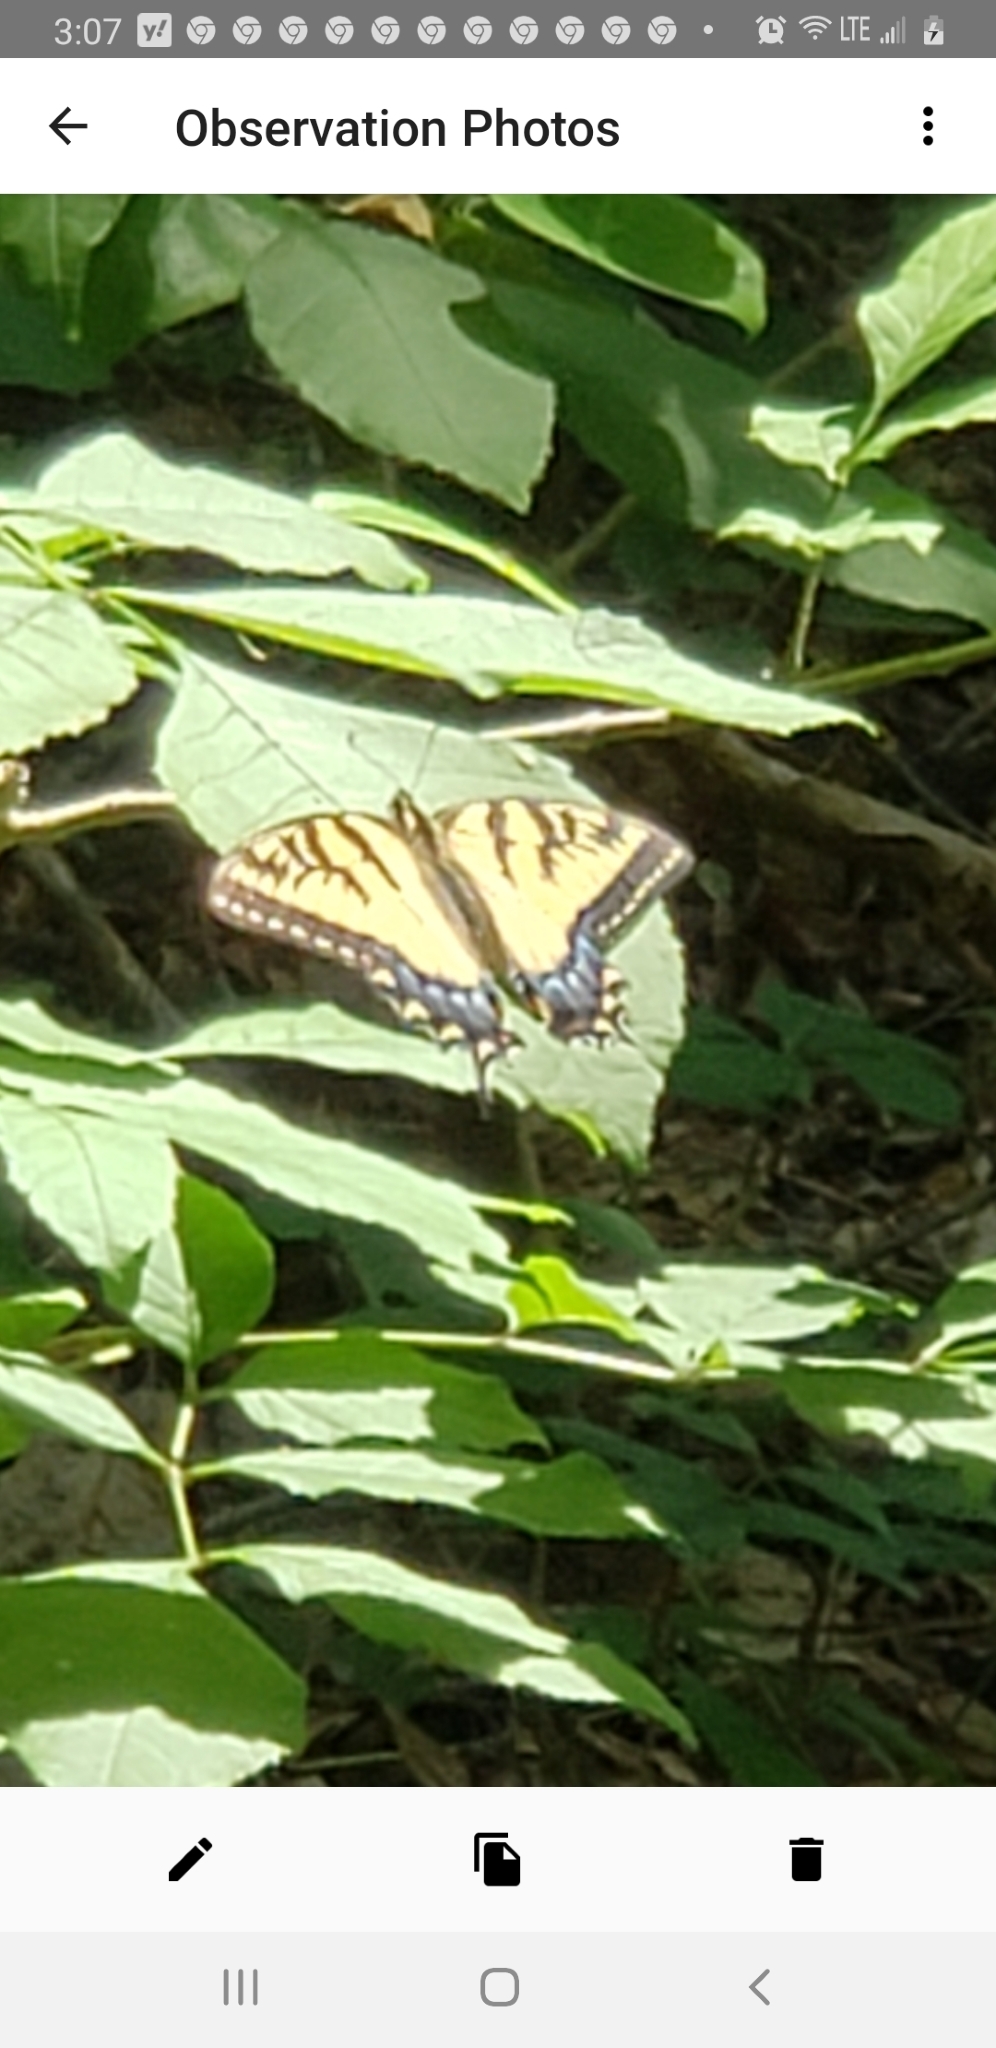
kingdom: Animalia
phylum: Arthropoda
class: Insecta
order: Lepidoptera
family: Papilionidae
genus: Papilio
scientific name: Papilio glaucus
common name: Tiger swallowtail
